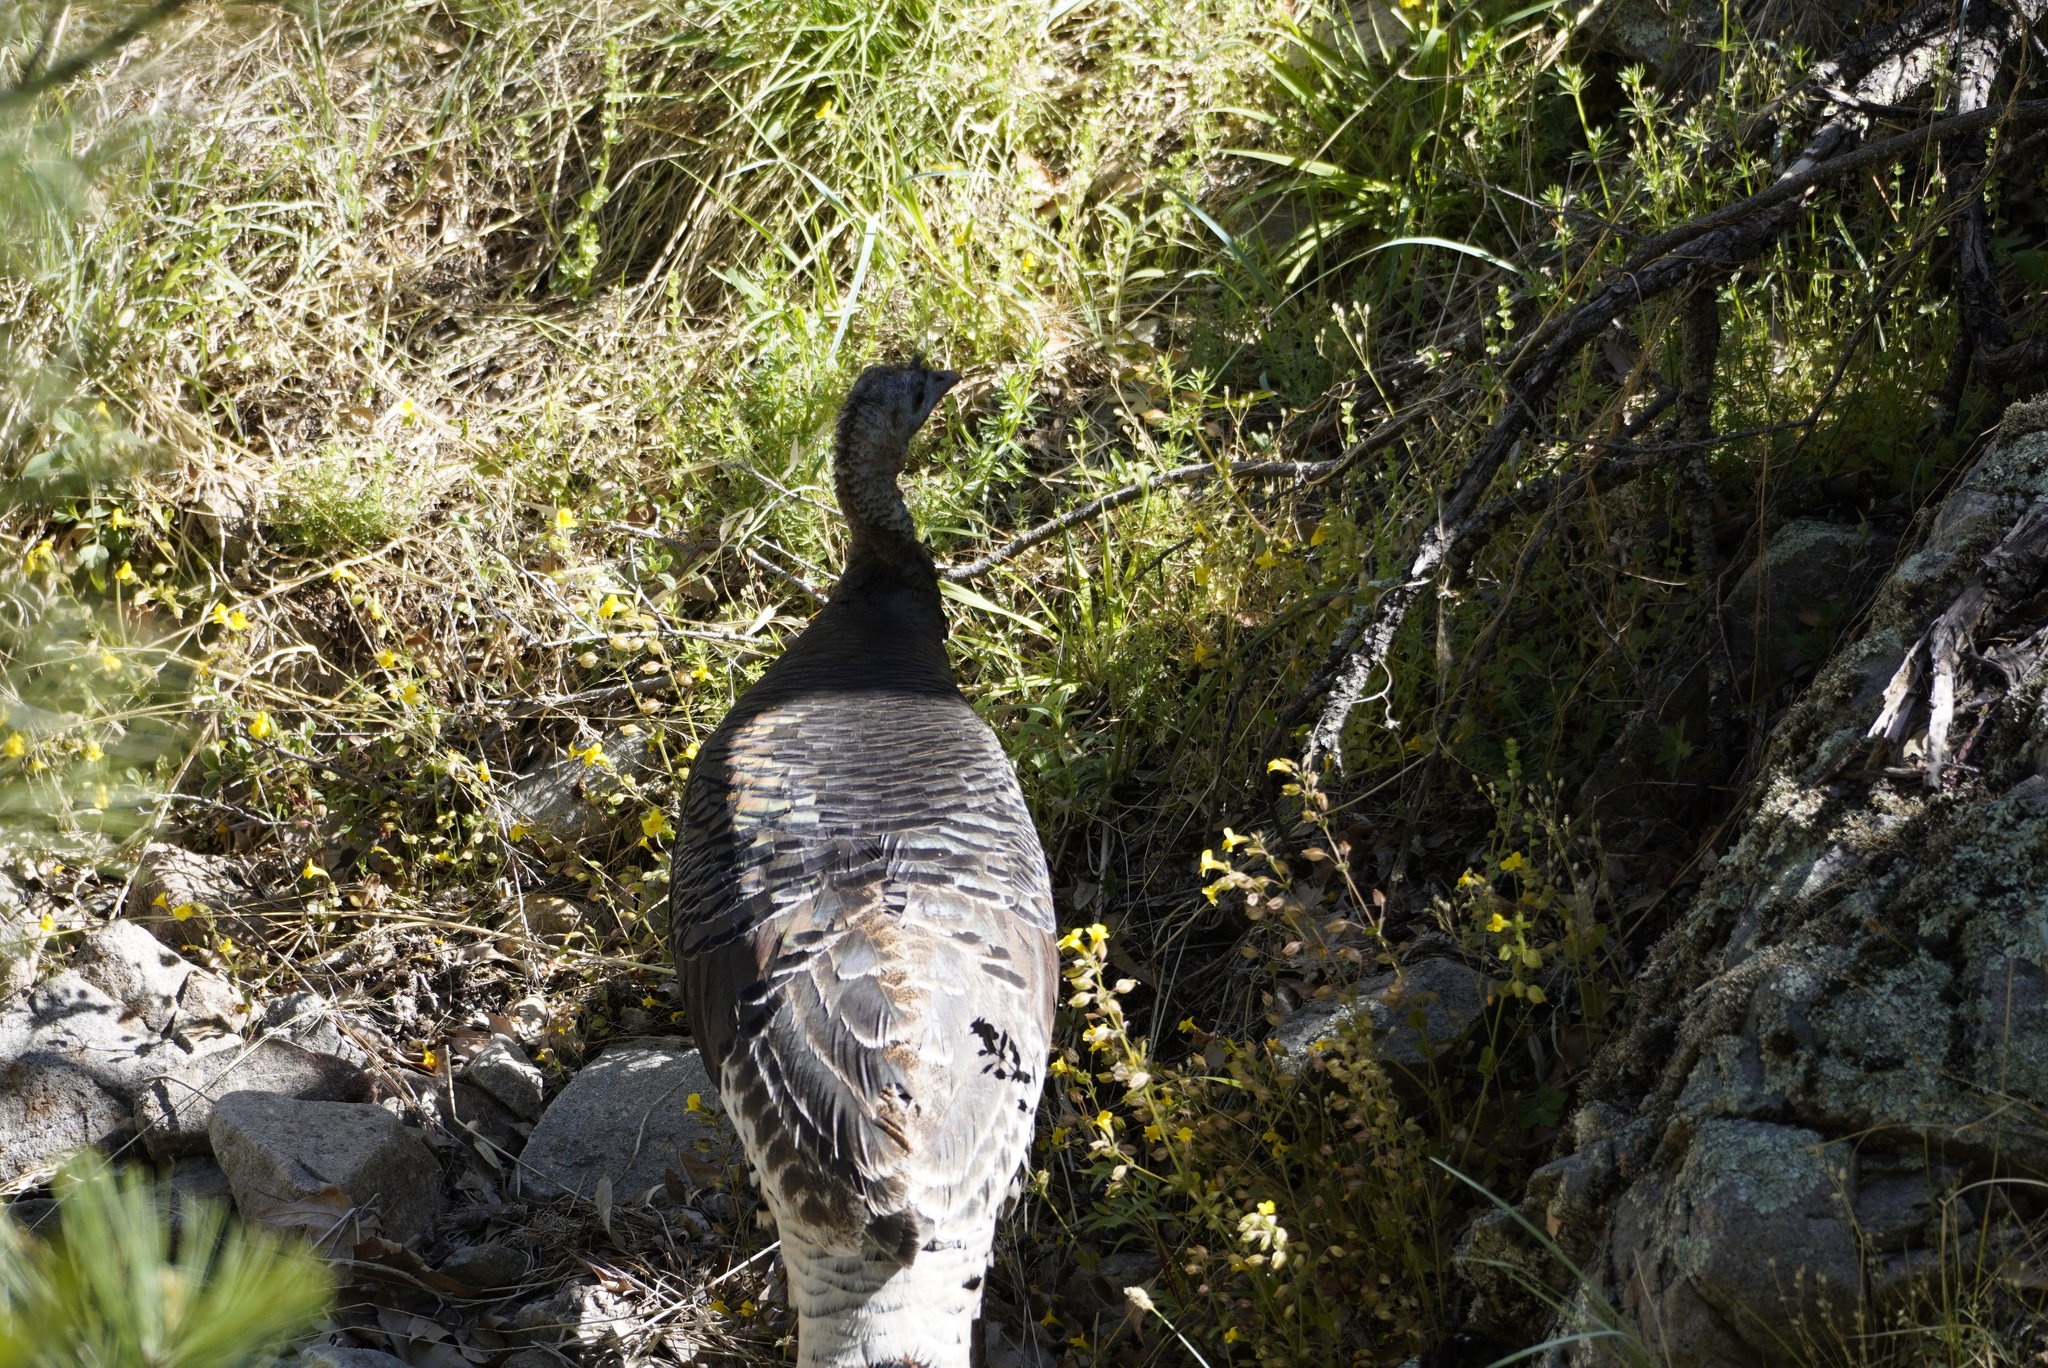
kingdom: Animalia
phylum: Chordata
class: Aves
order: Galliformes
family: Phasianidae
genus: Meleagris
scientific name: Meleagris gallopavo
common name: Wild turkey
